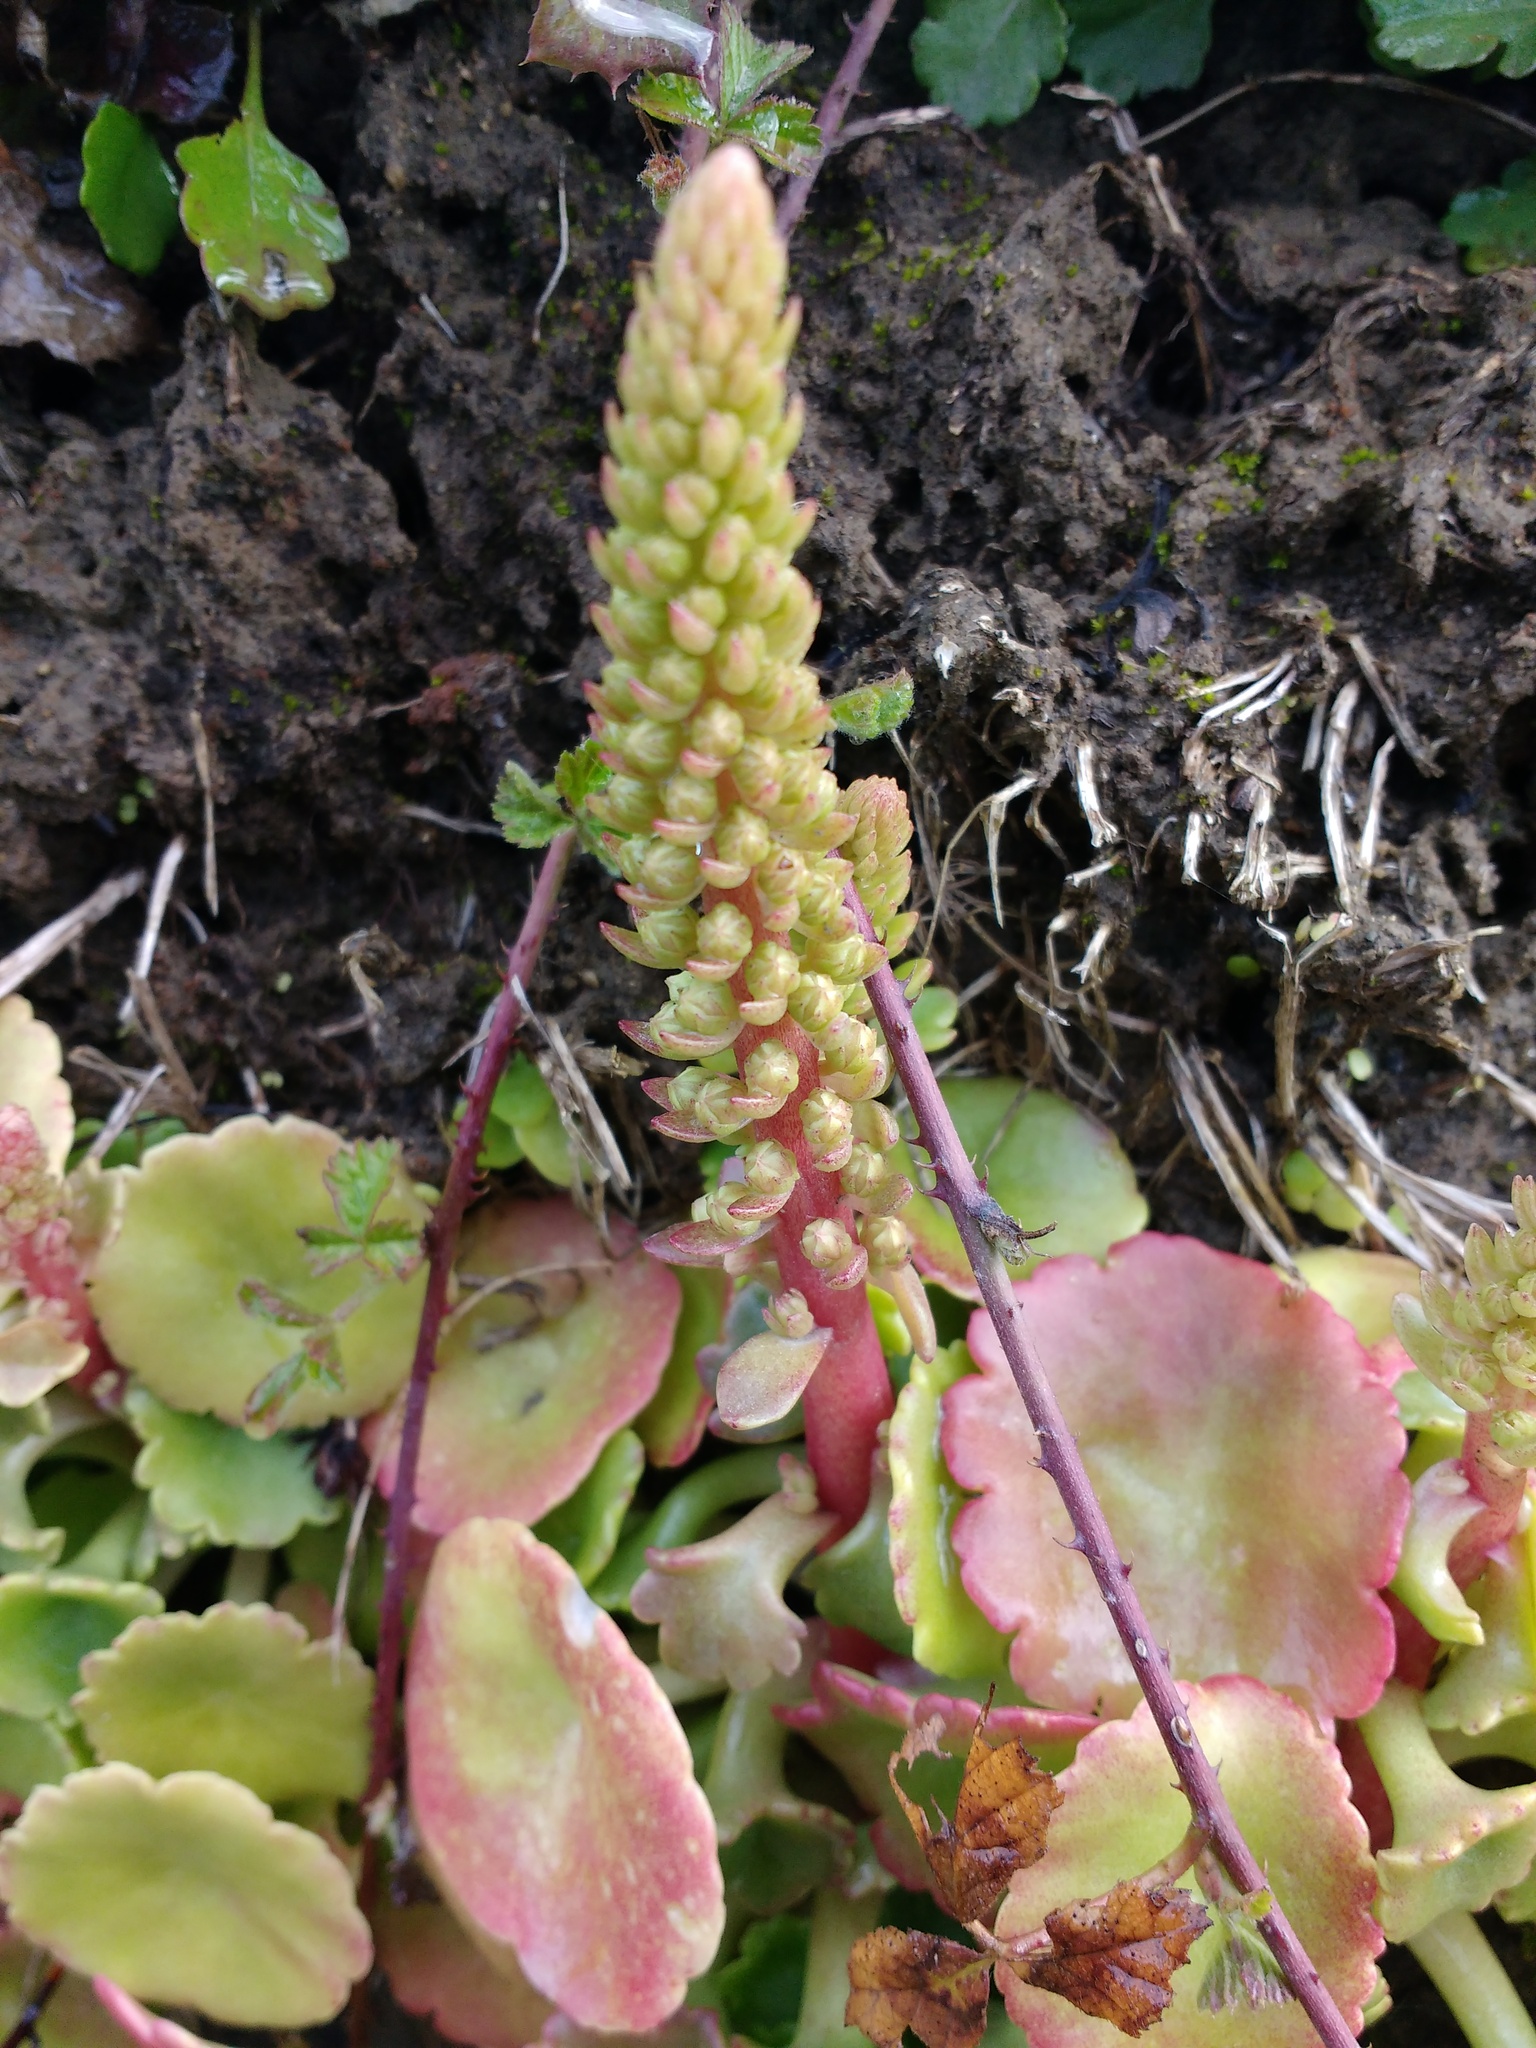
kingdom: Plantae
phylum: Tracheophyta
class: Magnoliopsida
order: Saxifragales
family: Crassulaceae
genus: Umbilicus
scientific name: Umbilicus rupestris
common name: Navelwort
